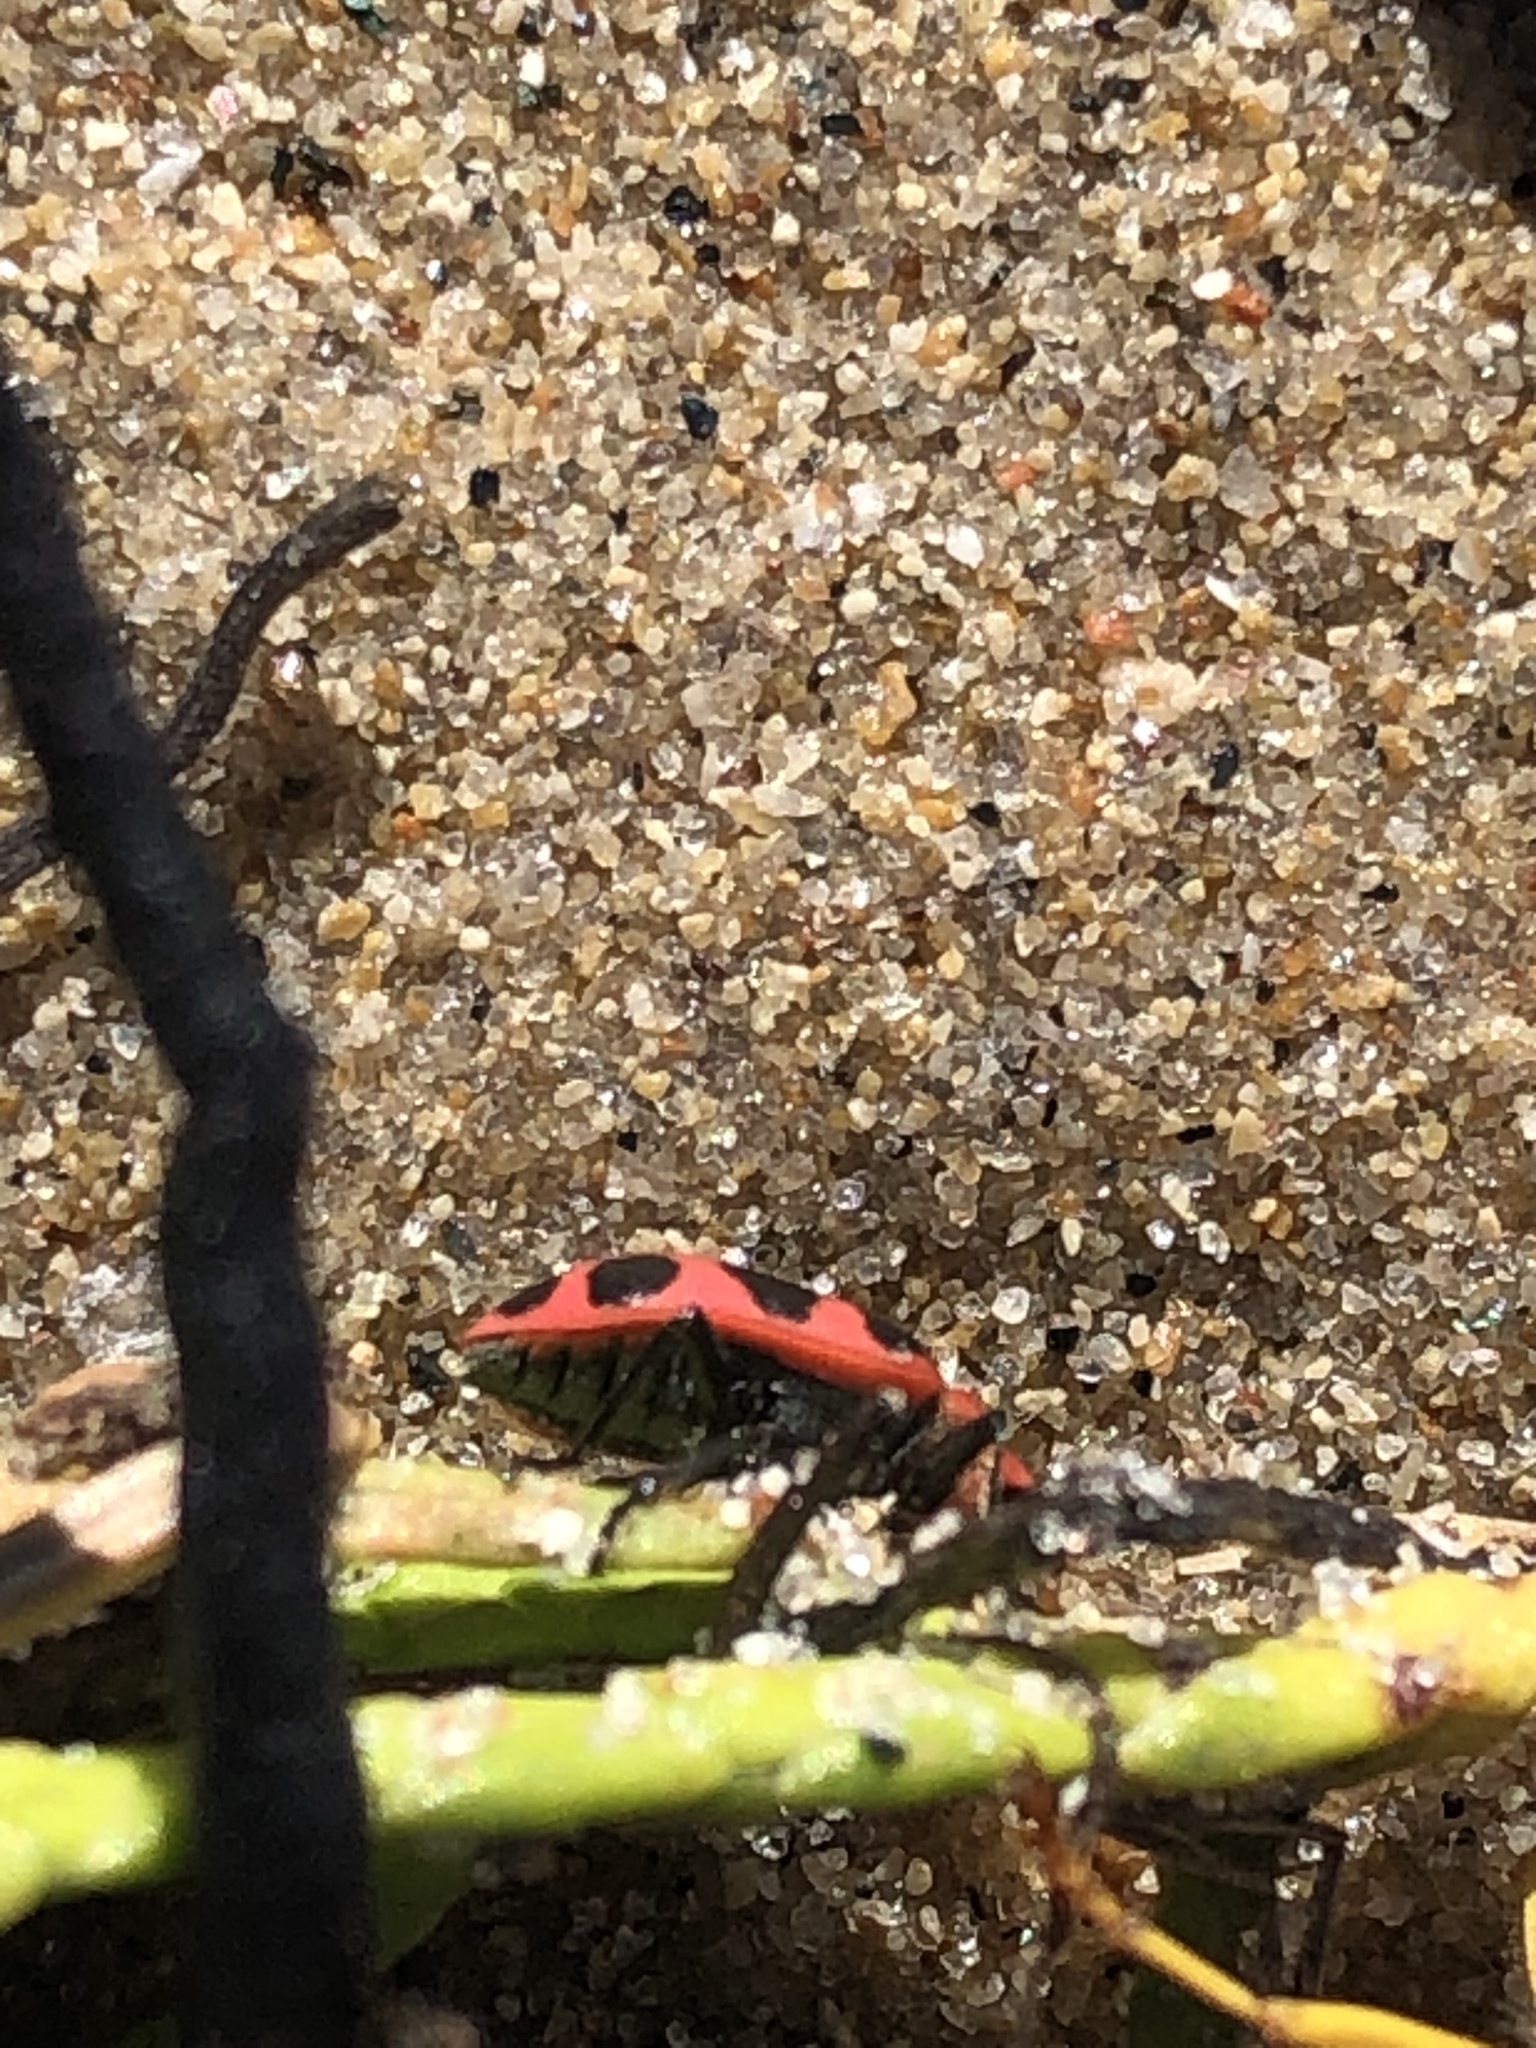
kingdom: Animalia
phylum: Arthropoda
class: Insecta
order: Coleoptera
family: Coccinellidae
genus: Coleomegilla
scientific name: Coleomegilla maculata
